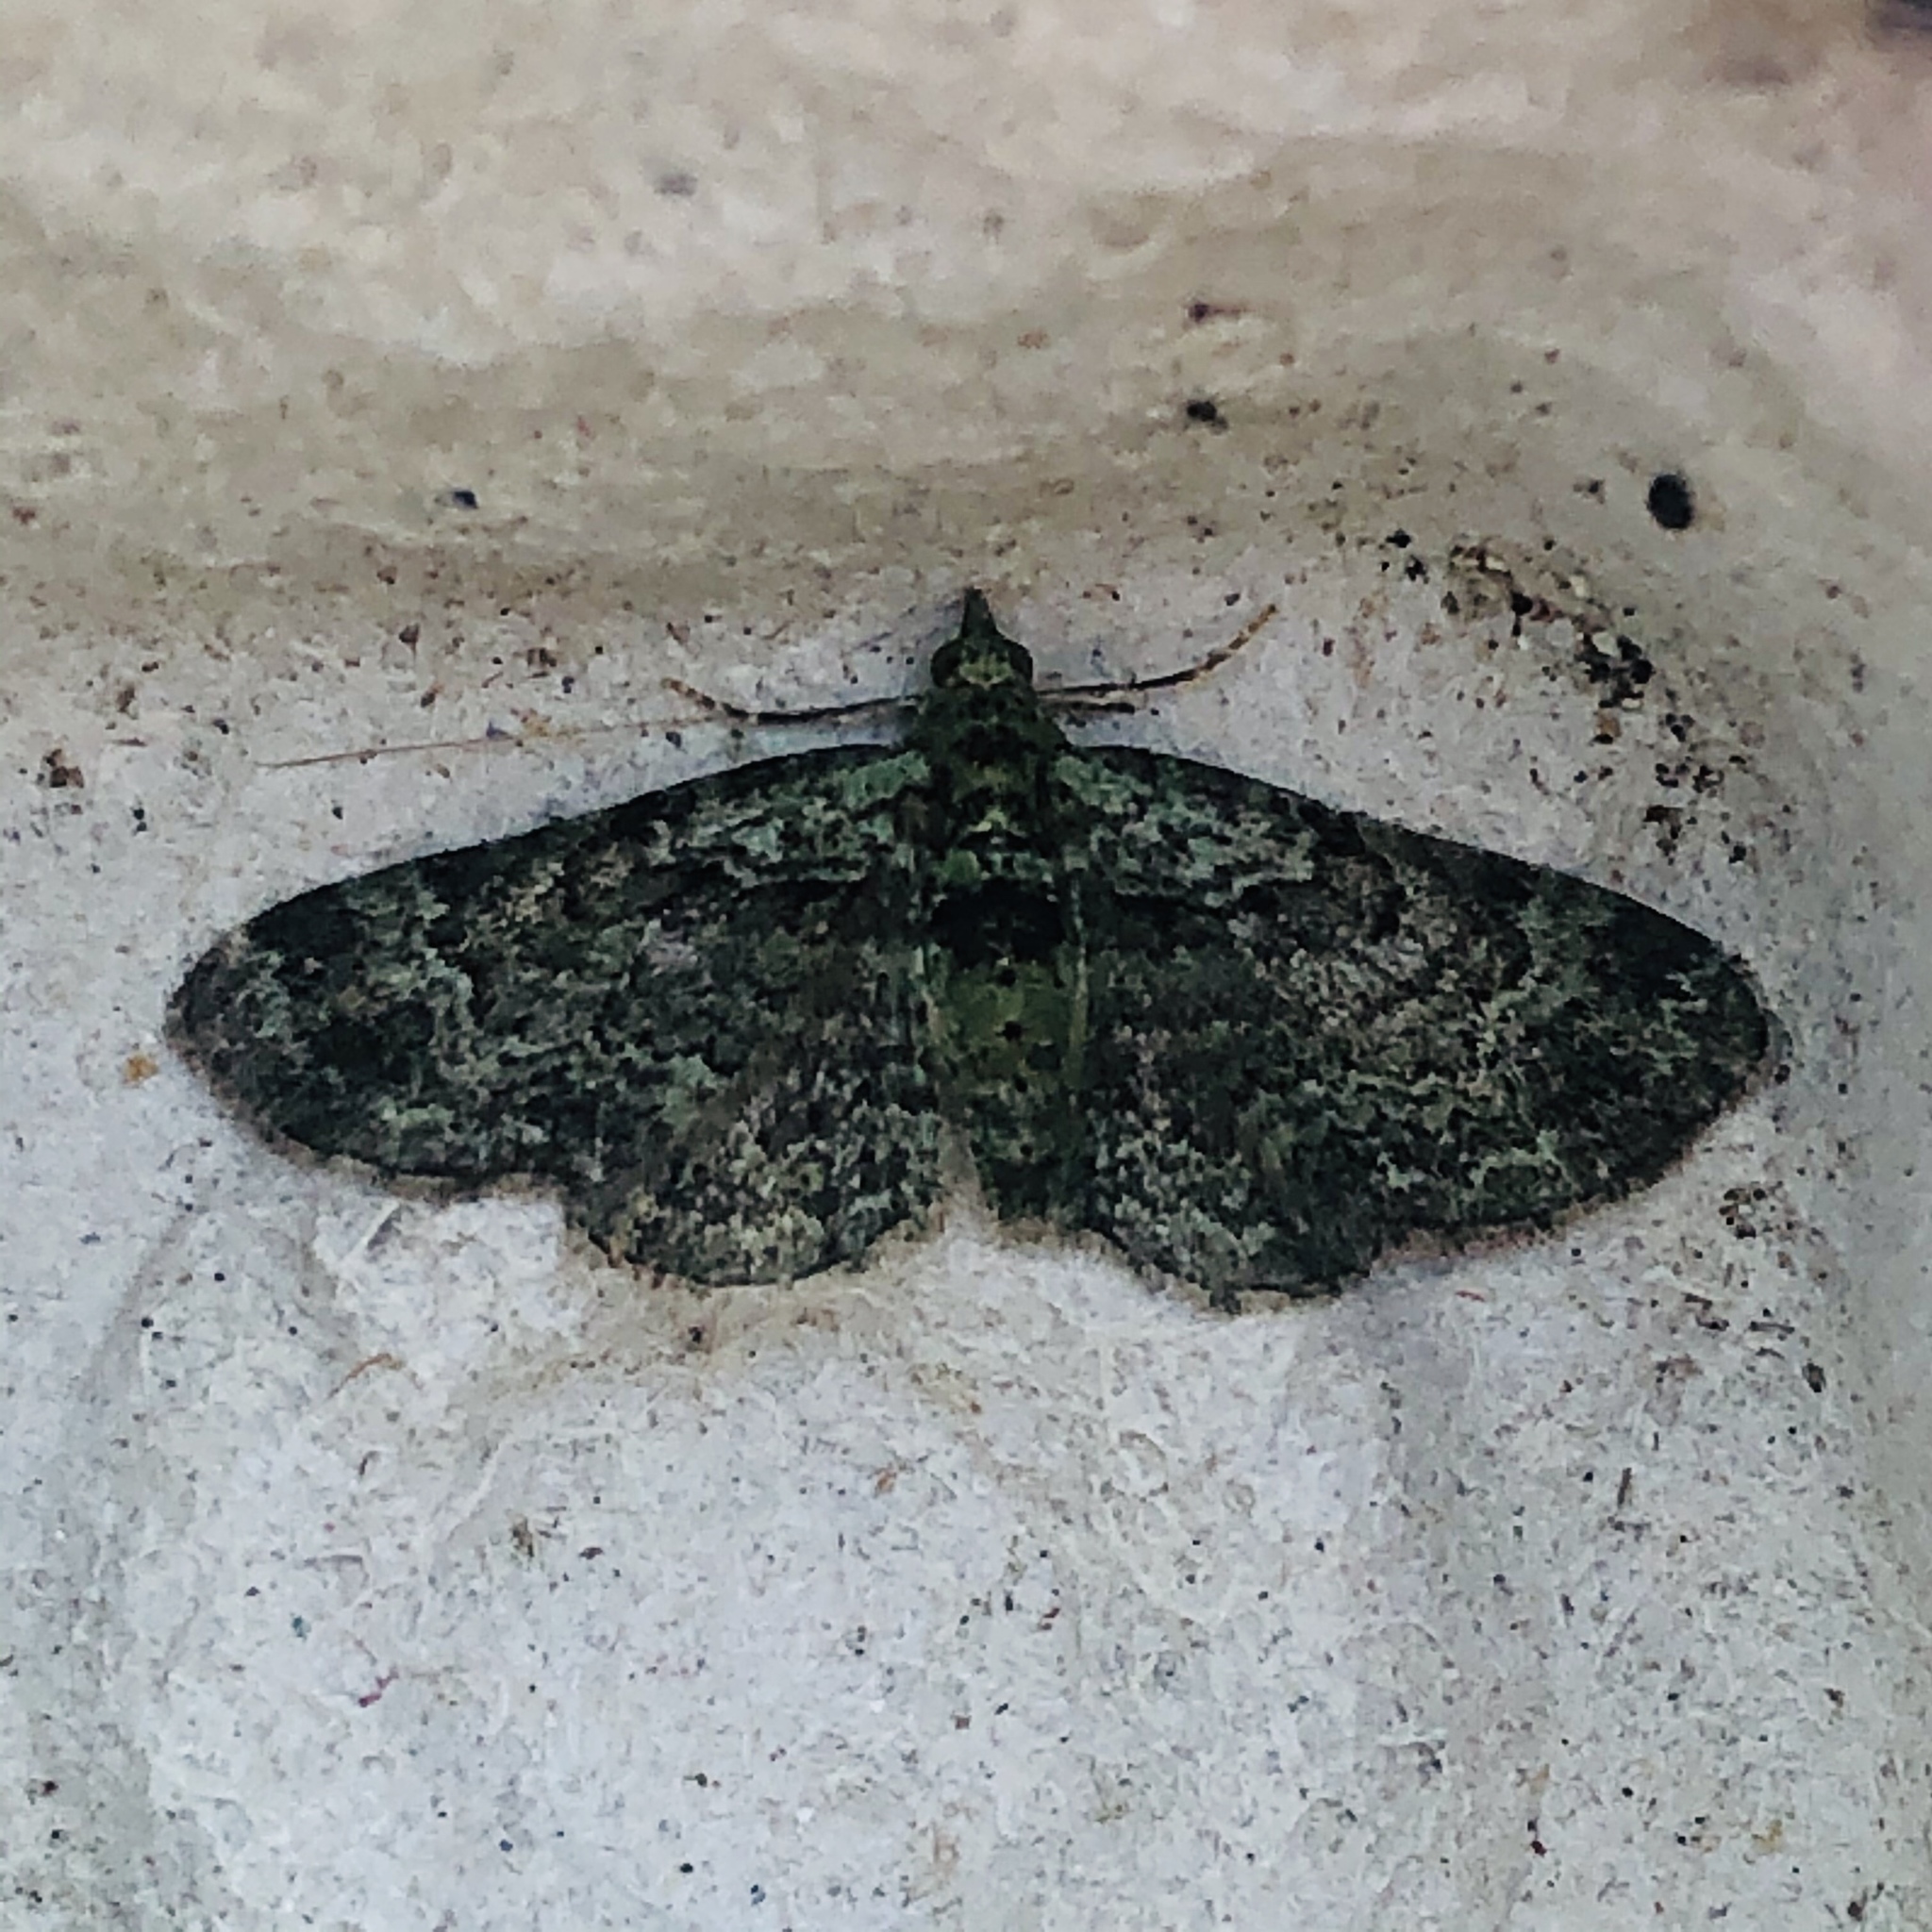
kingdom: Animalia
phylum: Arthropoda
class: Insecta
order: Lepidoptera
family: Geometridae
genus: Pasiphila
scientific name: Pasiphila rectangulata
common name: Green pug
